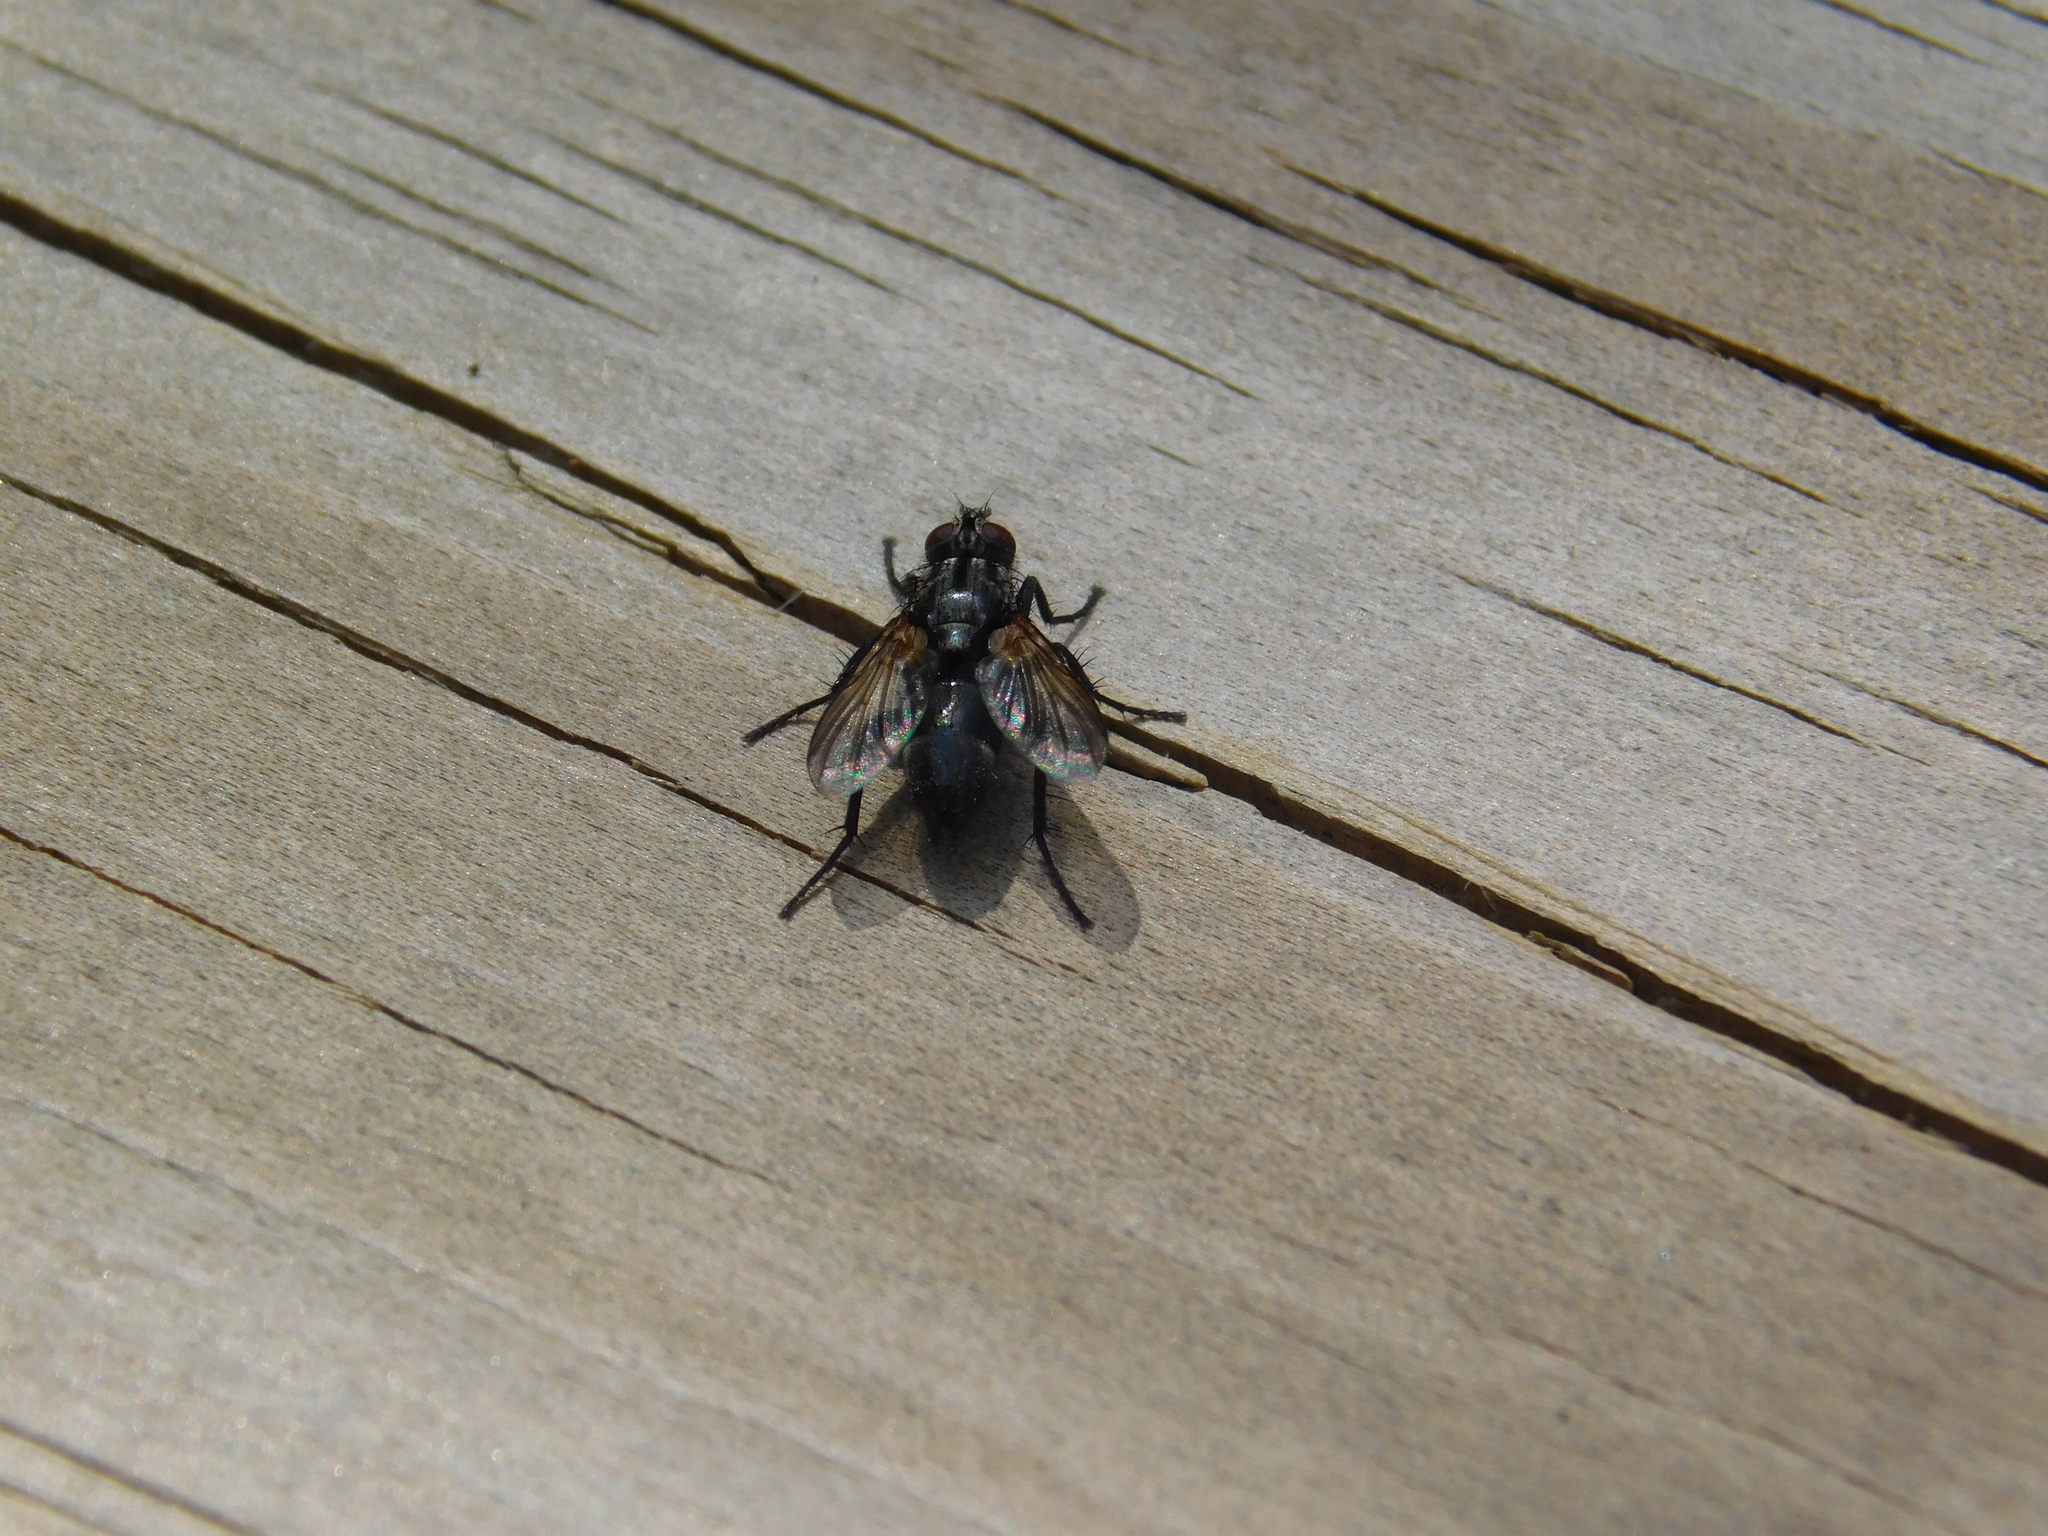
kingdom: Animalia
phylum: Arthropoda
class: Insecta
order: Diptera
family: Calliphoridae
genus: Stevenia
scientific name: Stevenia deceptoria
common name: Grizzled woodlouse-fly
